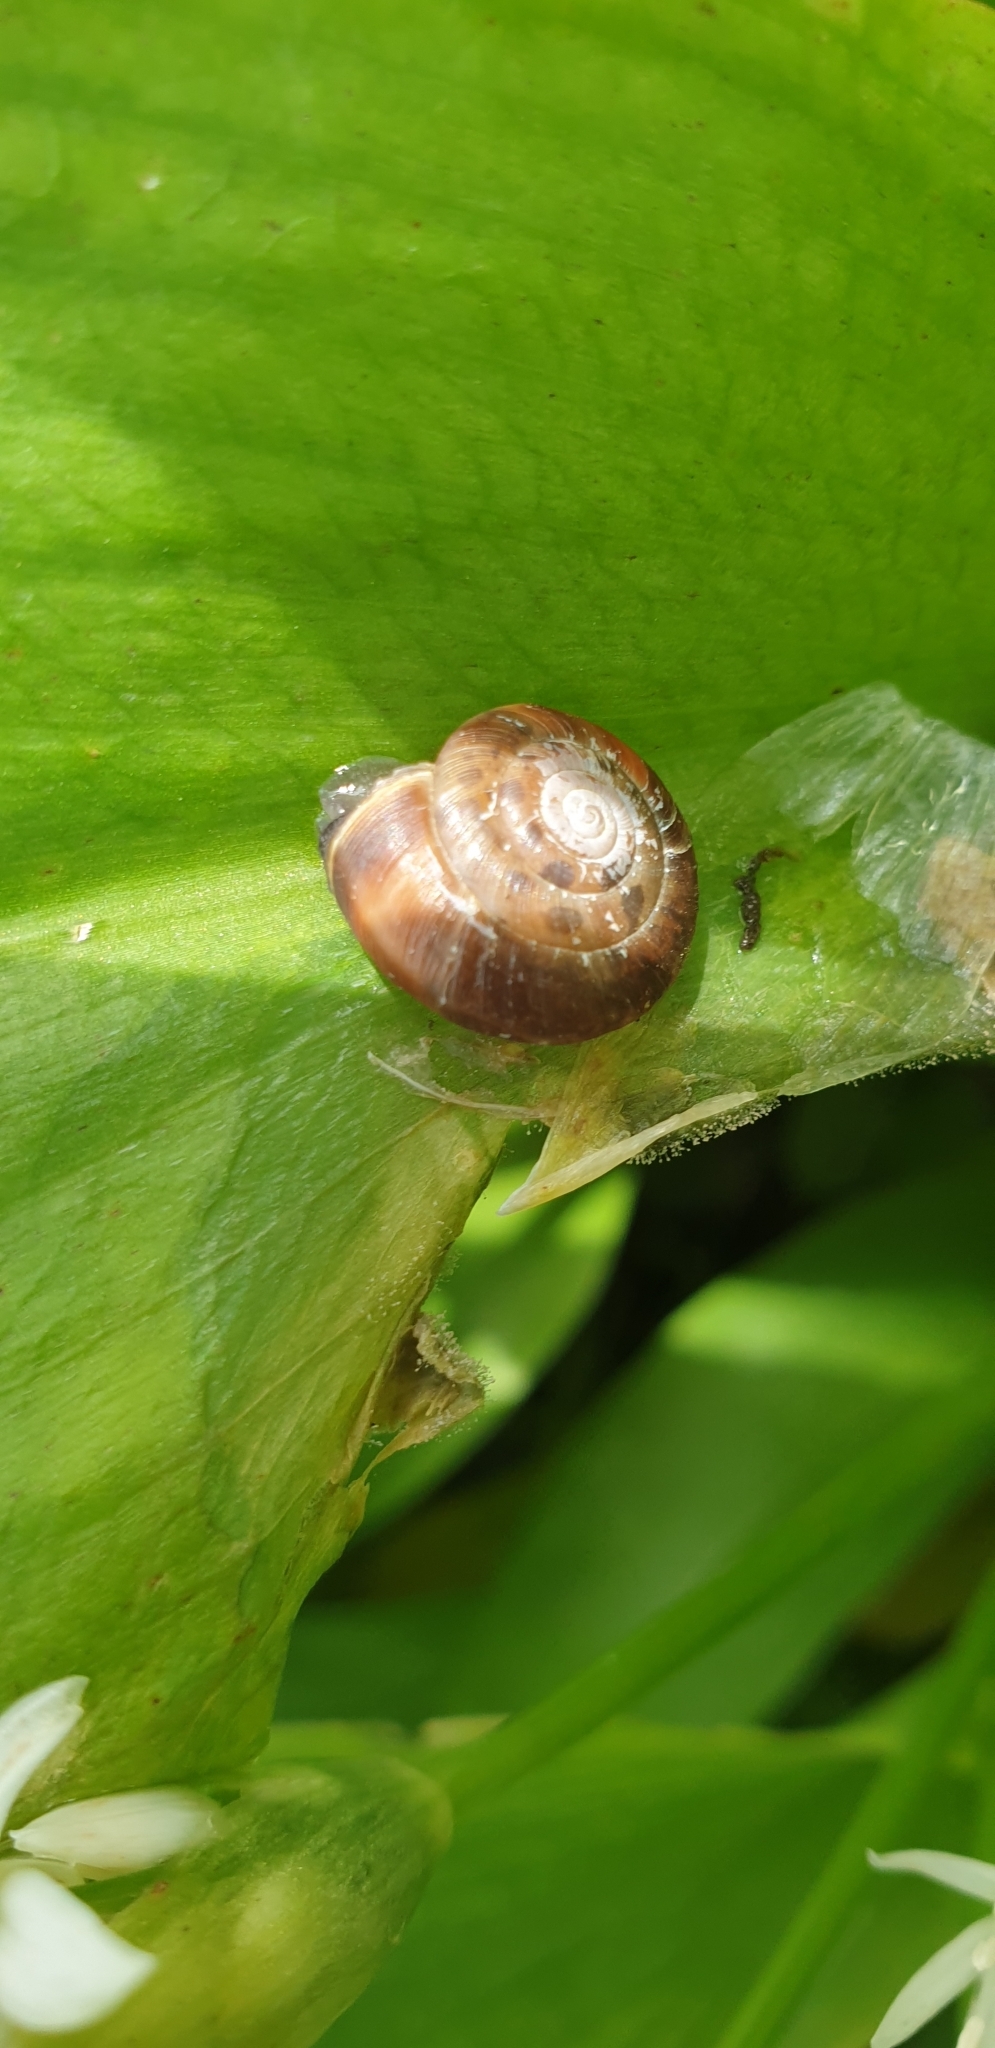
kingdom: Animalia
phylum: Mollusca
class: Gastropoda
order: Stylommatophora
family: Hygromiidae
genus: Trochulus
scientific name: Trochulus striolatus
